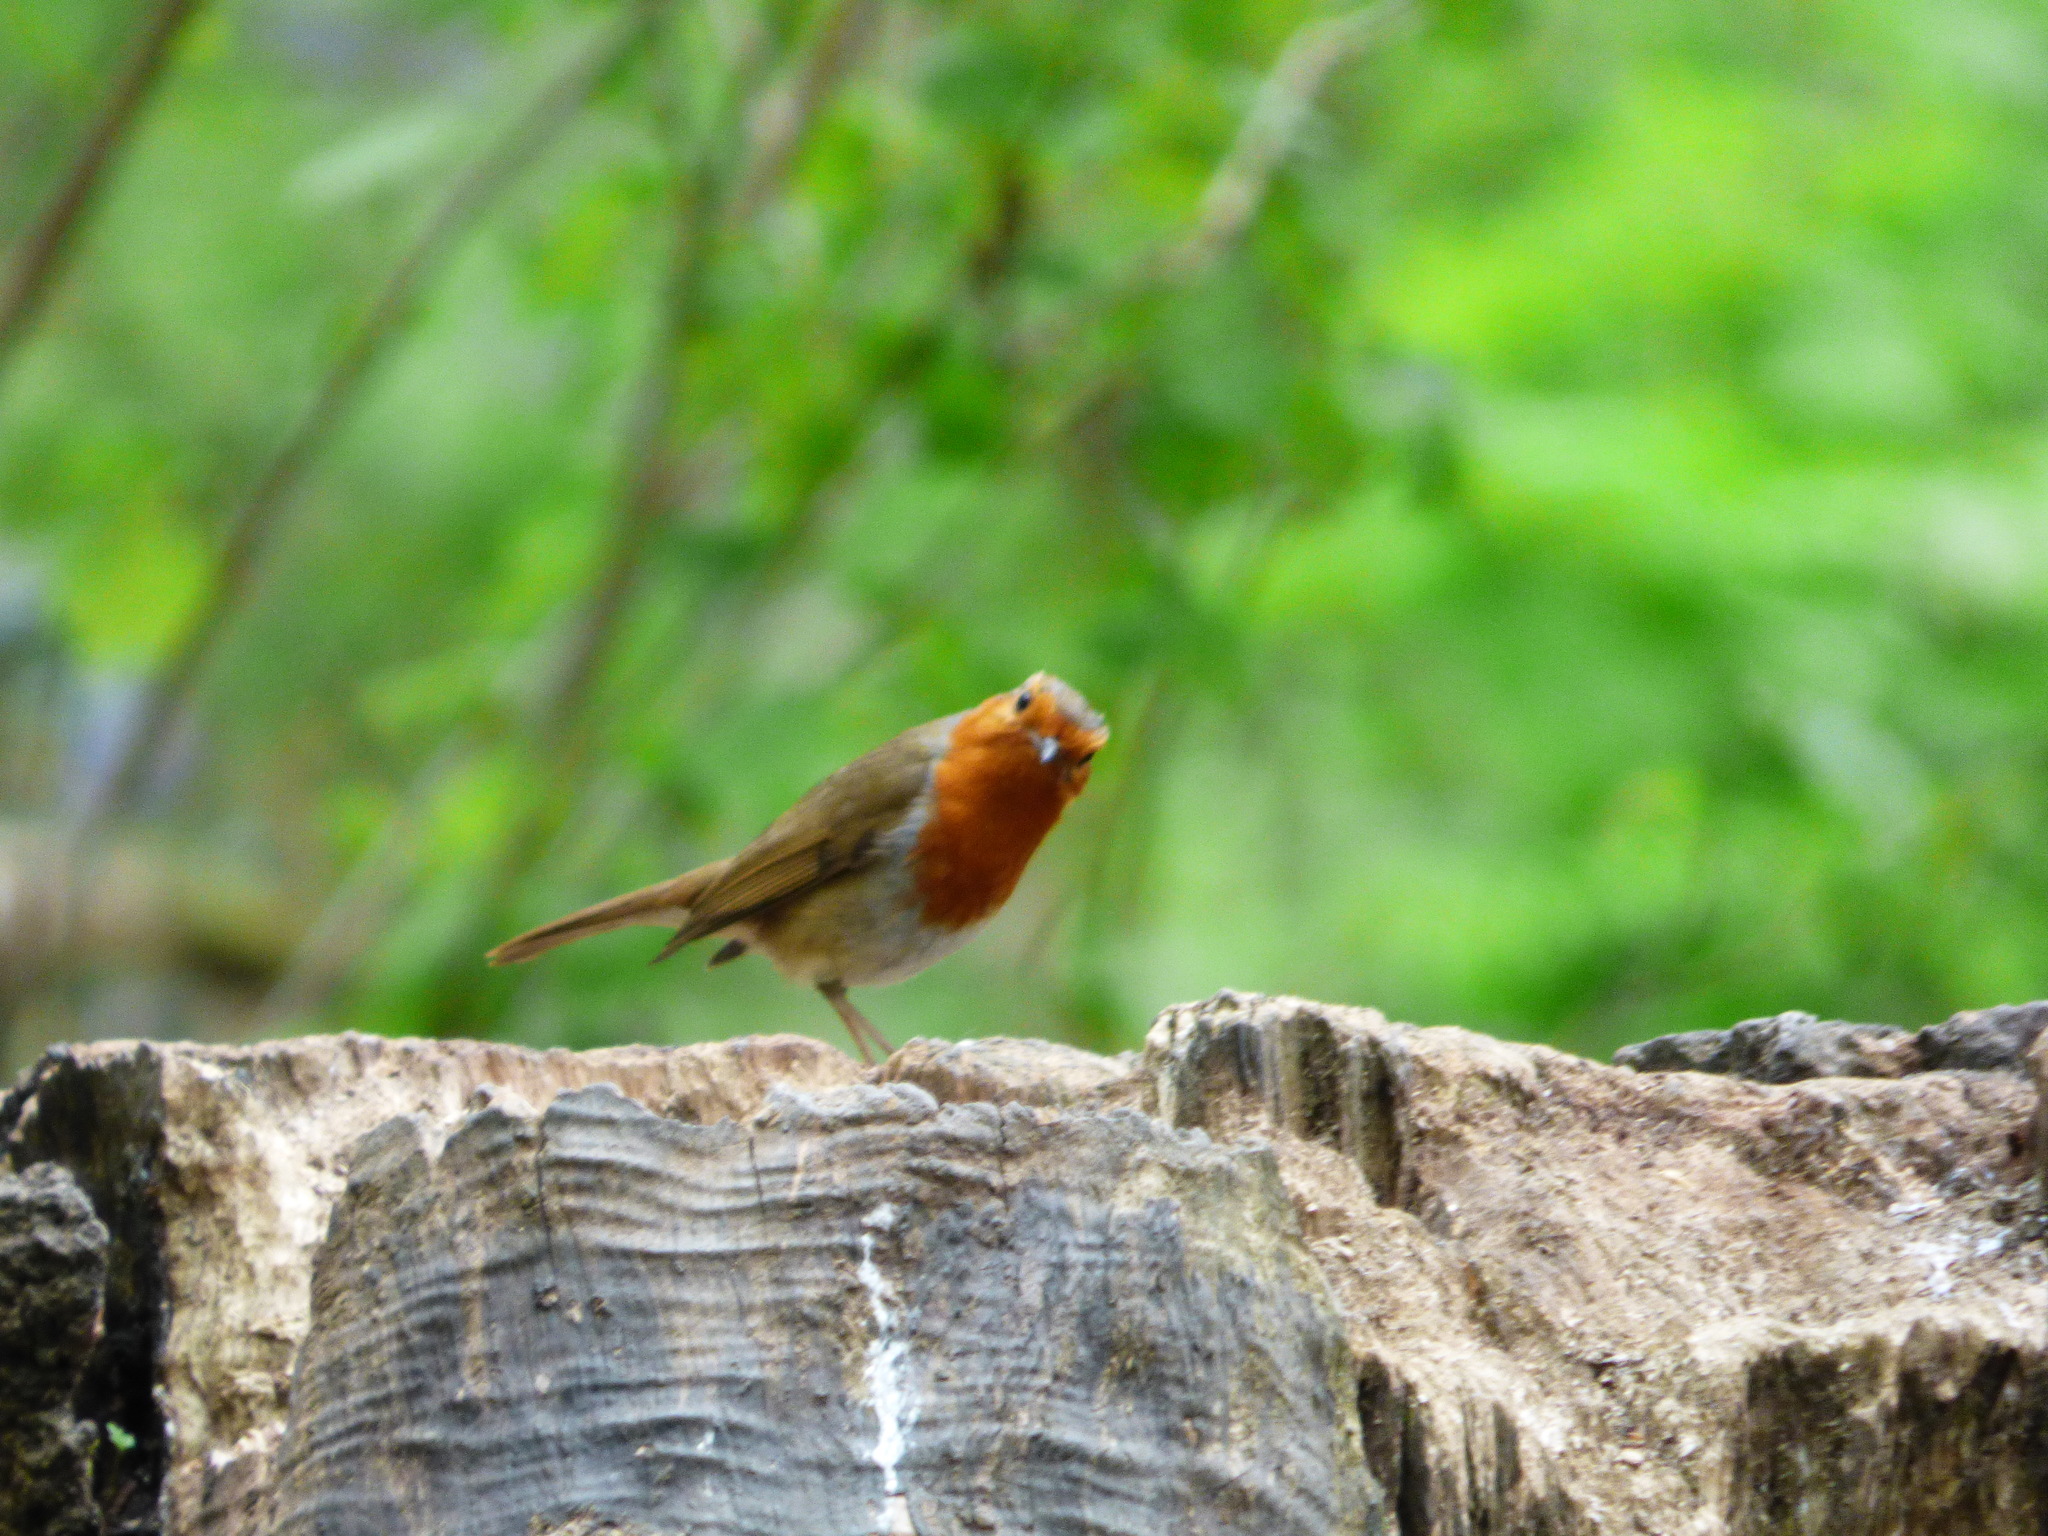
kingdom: Animalia
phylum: Chordata
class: Aves
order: Passeriformes
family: Muscicapidae
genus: Erithacus
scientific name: Erithacus rubecula
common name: European robin
